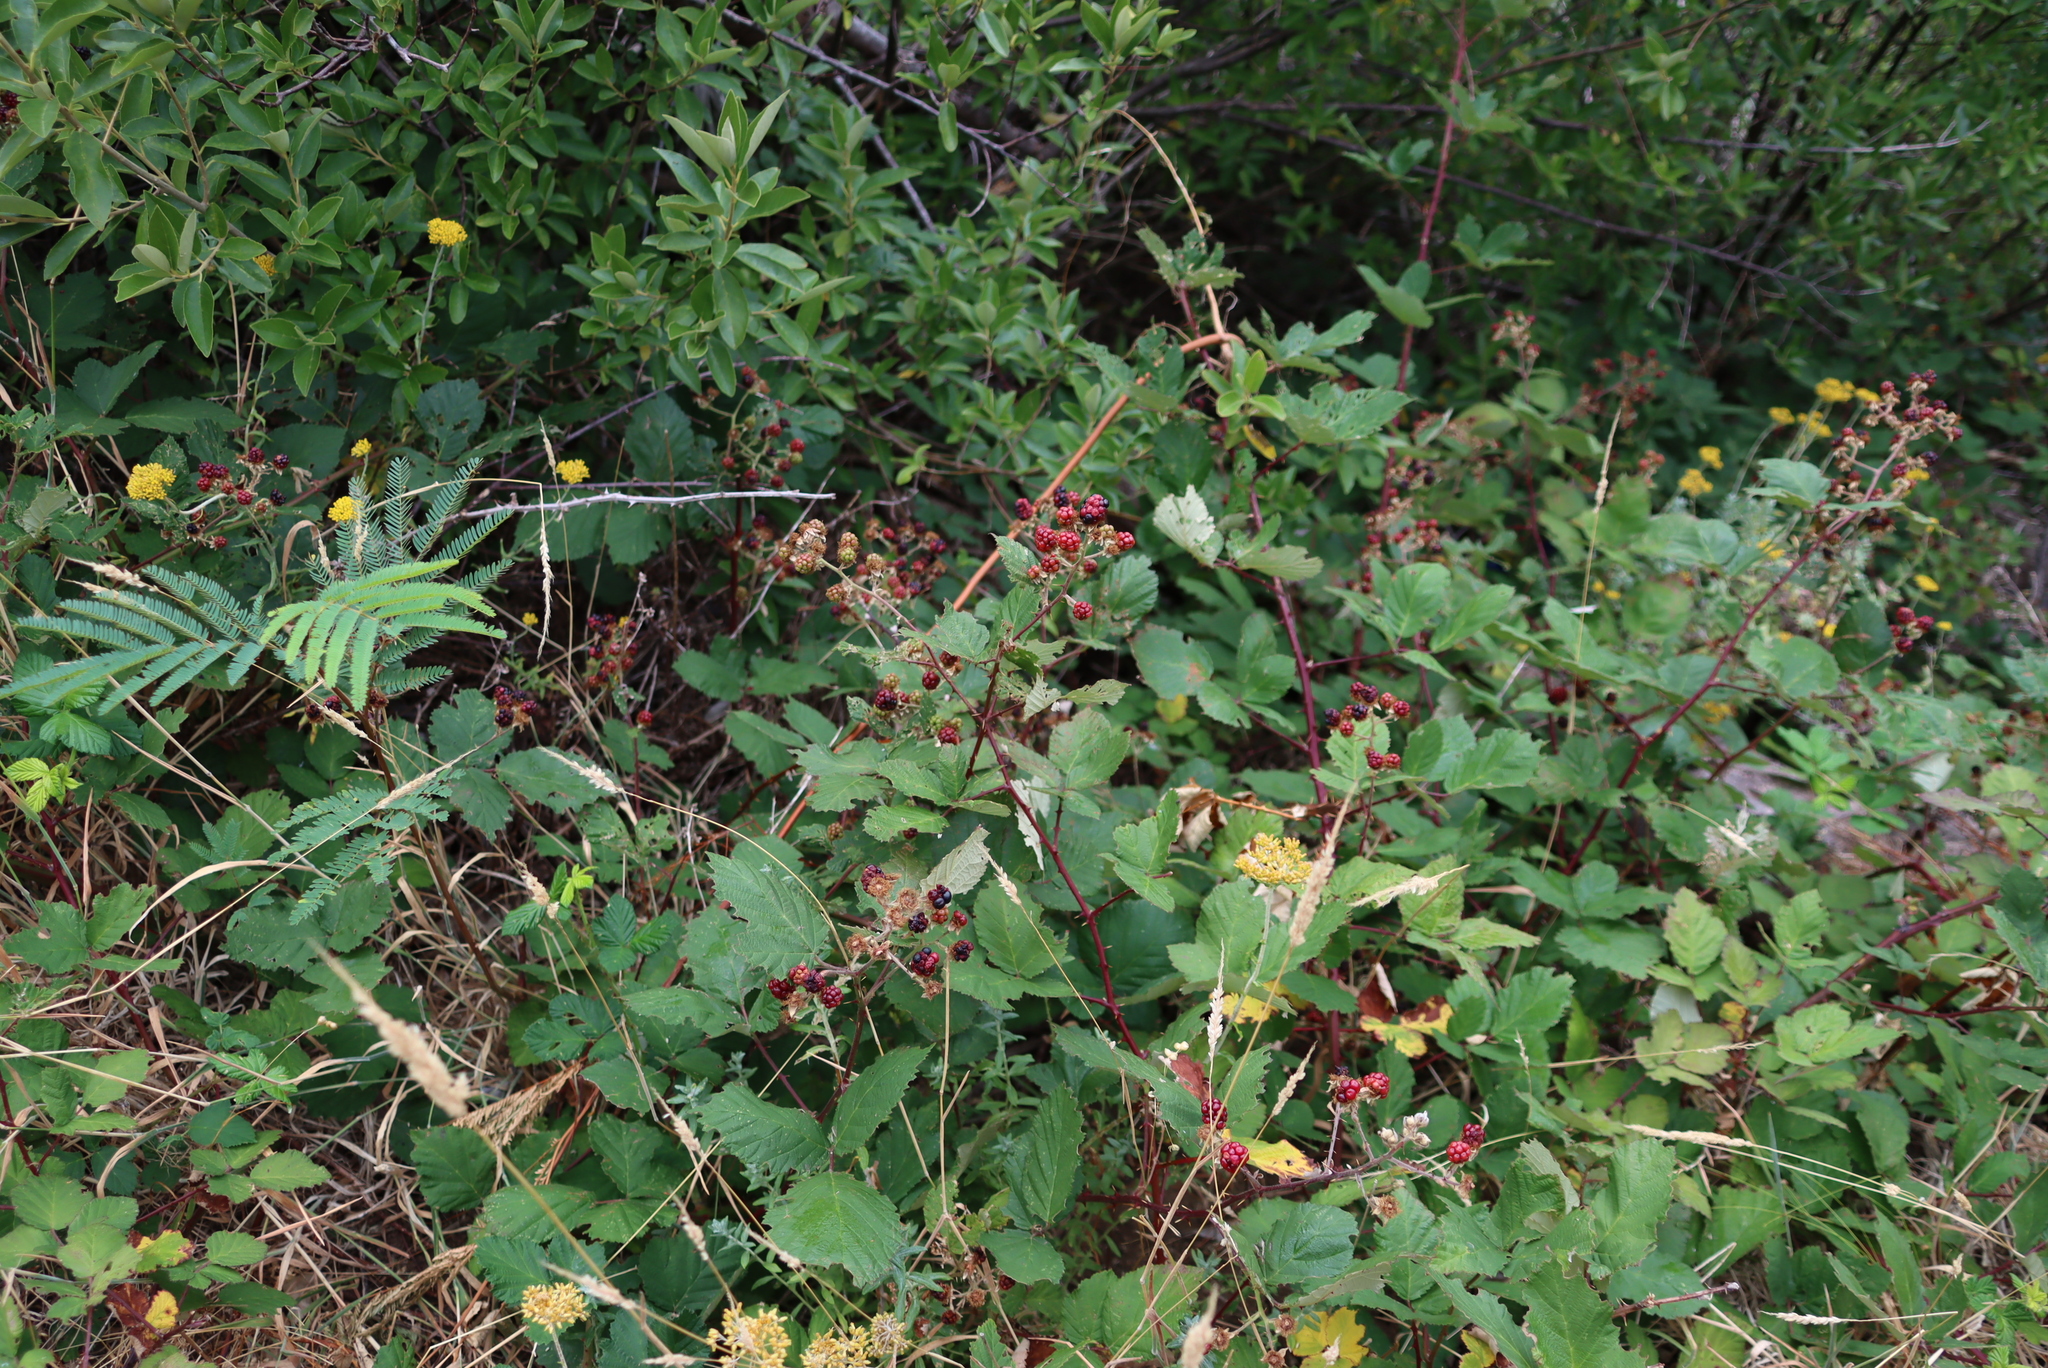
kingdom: Plantae
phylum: Tracheophyta
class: Magnoliopsida
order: Rosales
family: Rosaceae
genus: Rubus
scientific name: Rubus armeniacus
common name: Himalayan blackberry
